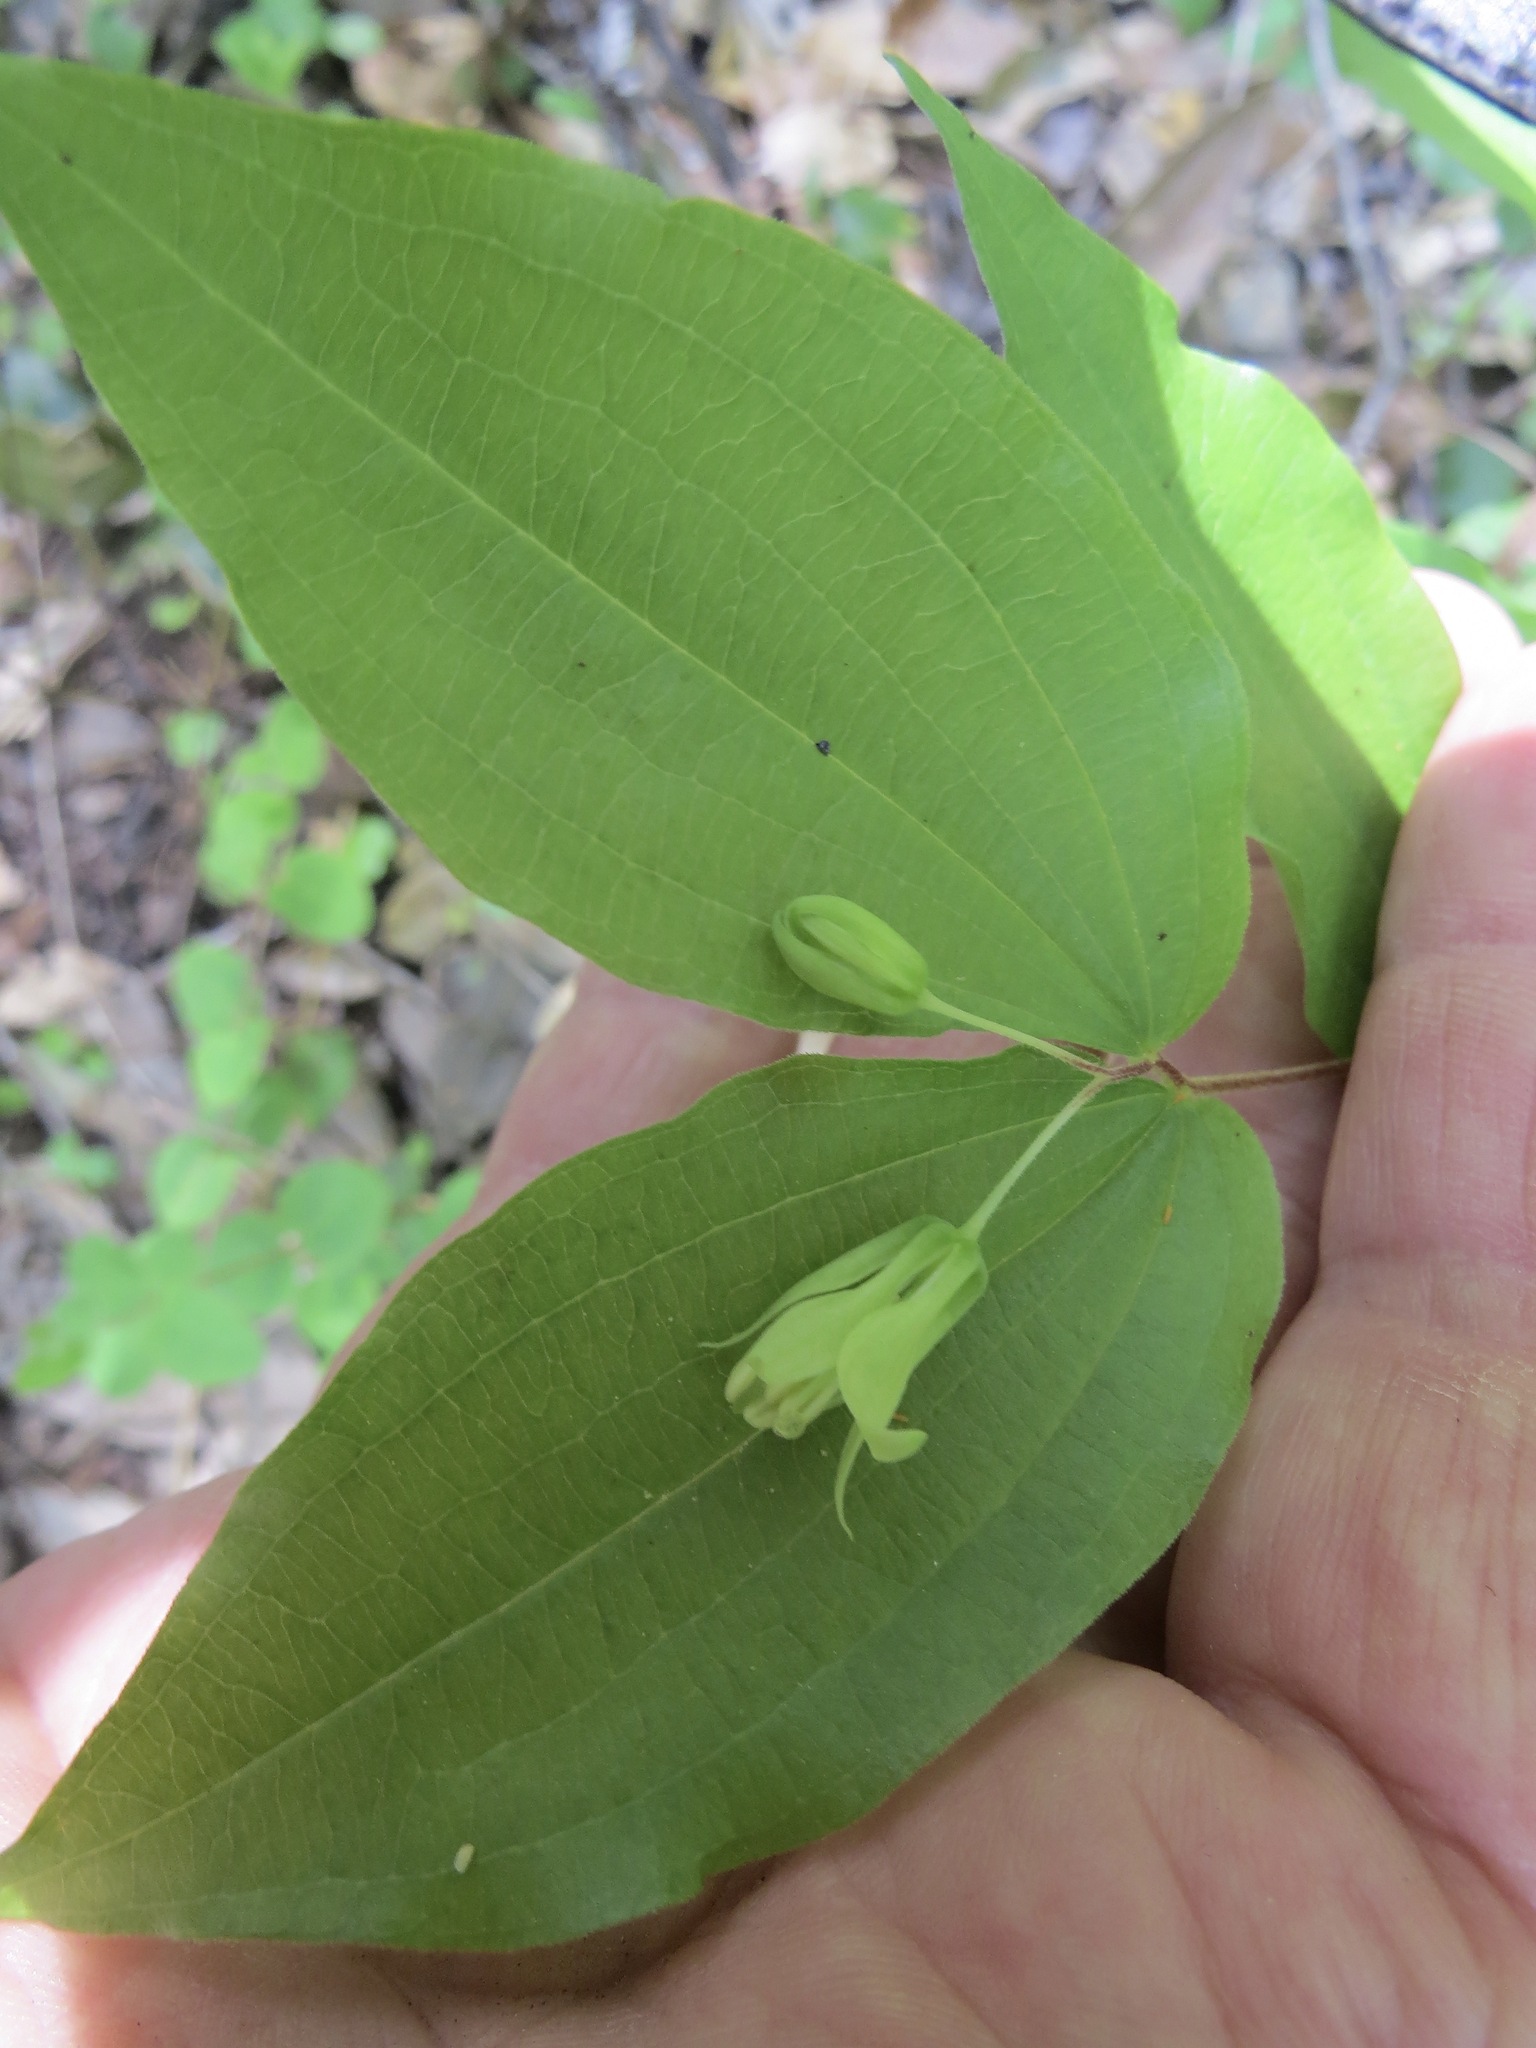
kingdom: Plantae
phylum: Tracheophyta
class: Liliopsida
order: Liliales
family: Liliaceae
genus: Prosartes
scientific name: Prosartes hookeri
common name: Fairy-bells
